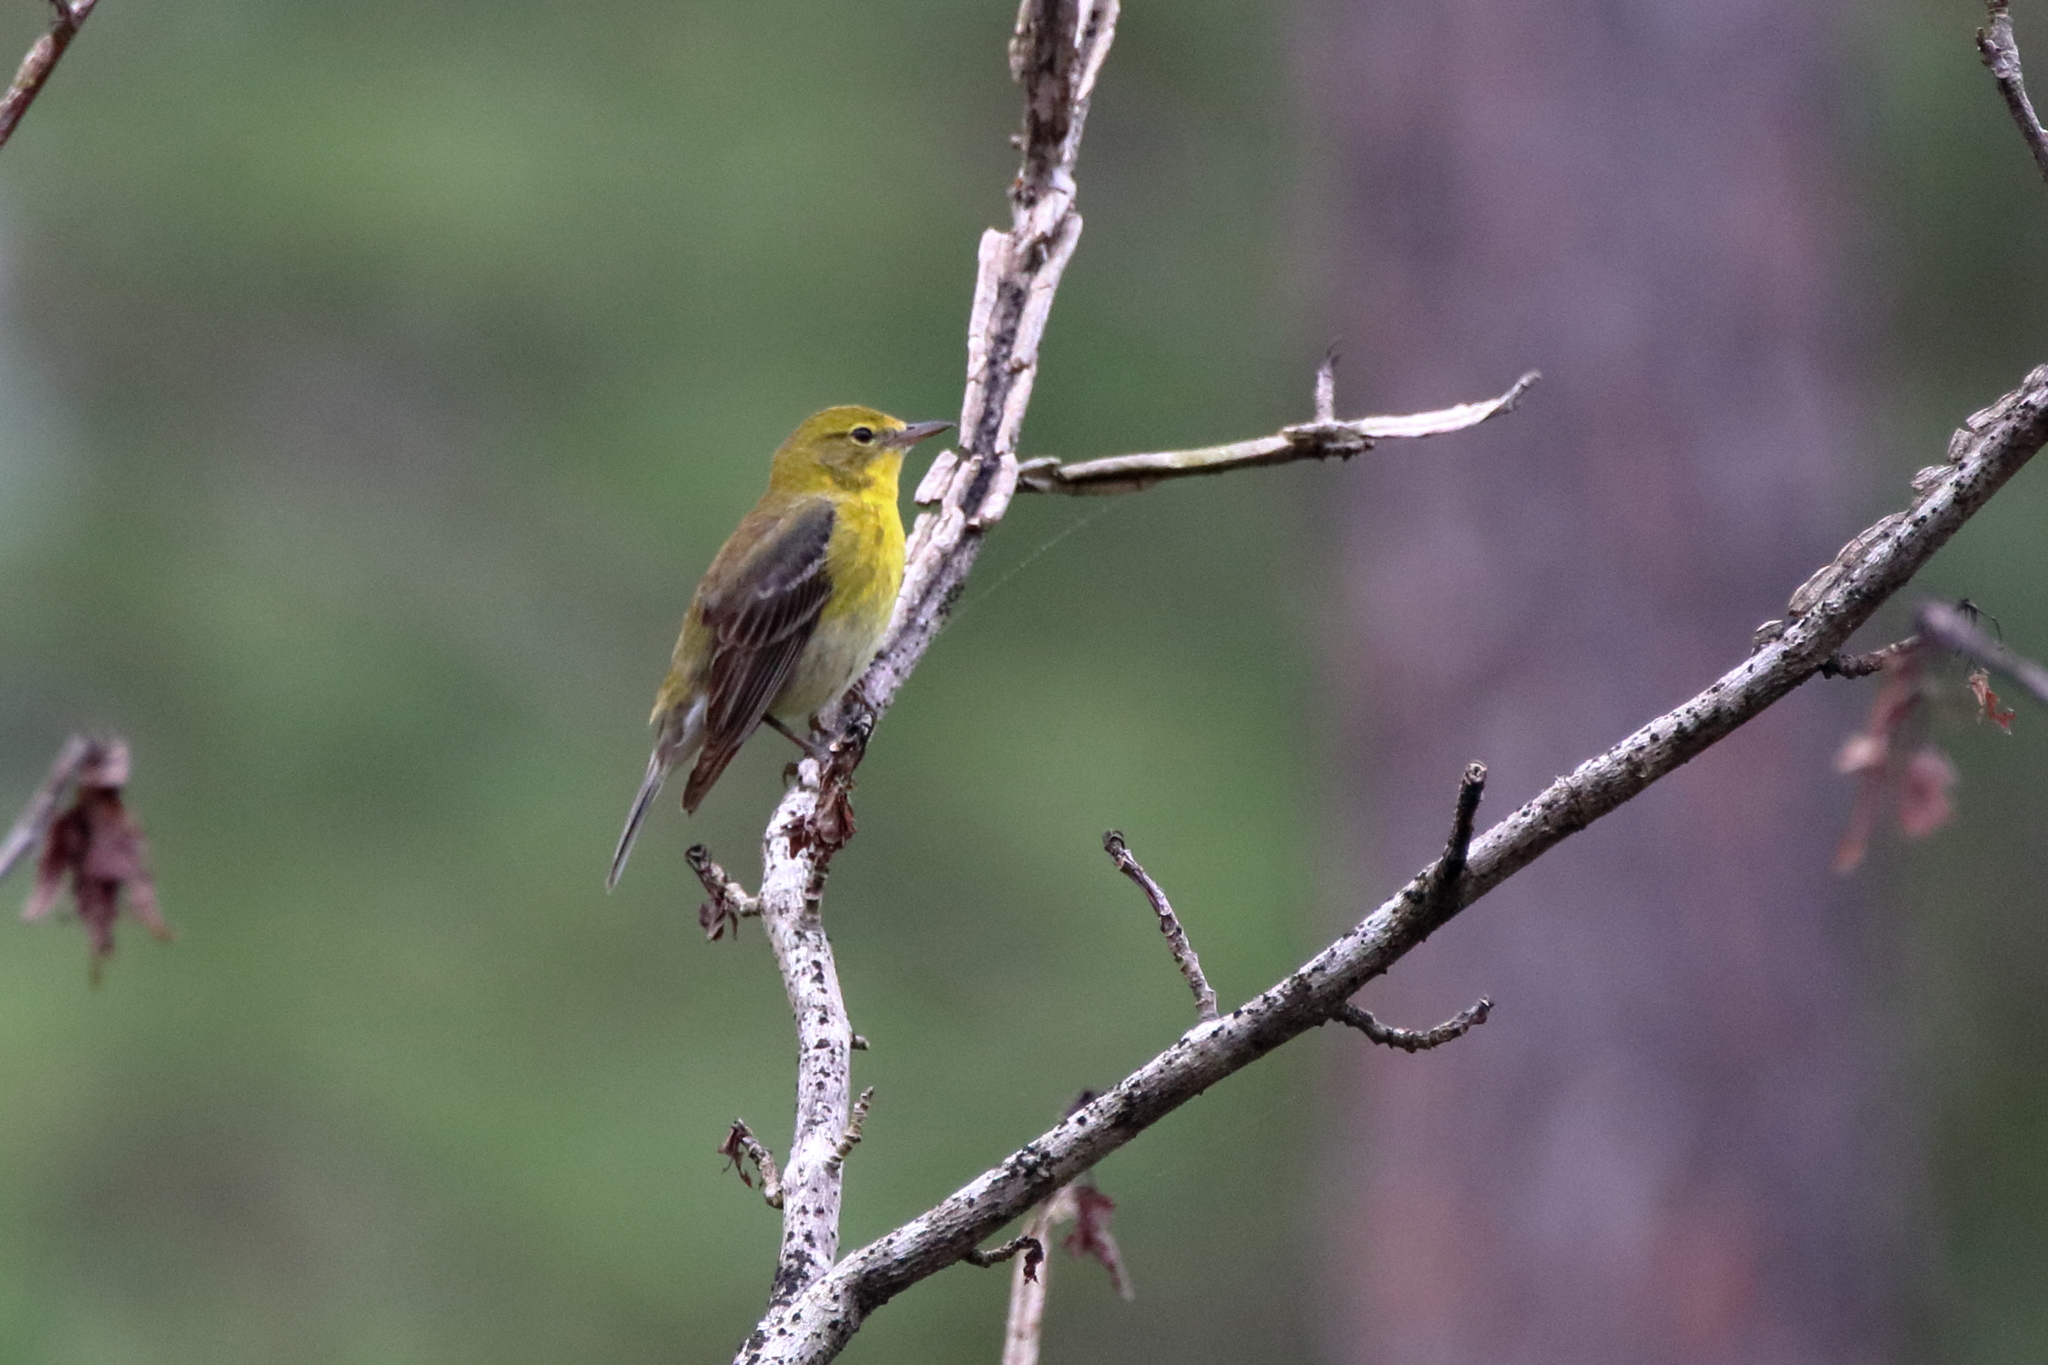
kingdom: Animalia
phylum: Chordata
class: Aves
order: Passeriformes
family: Parulidae
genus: Setophaga
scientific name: Setophaga pinus
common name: Pine warbler
